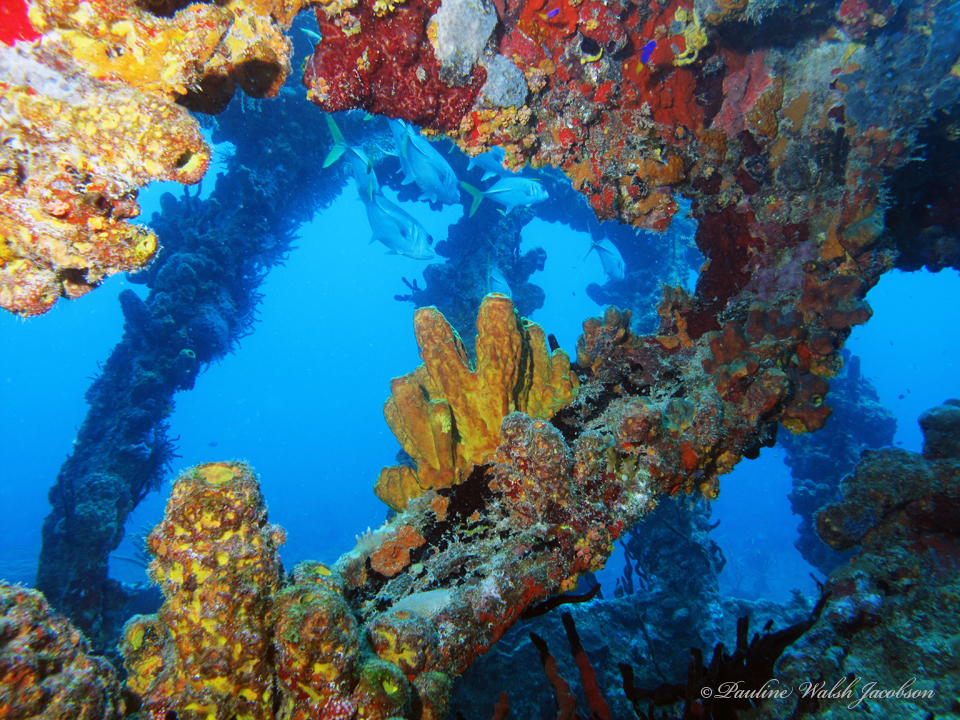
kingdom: Animalia
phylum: Chordata
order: Perciformes
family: Carangidae
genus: Caranx
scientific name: Caranx latus
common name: Horse eye jack
